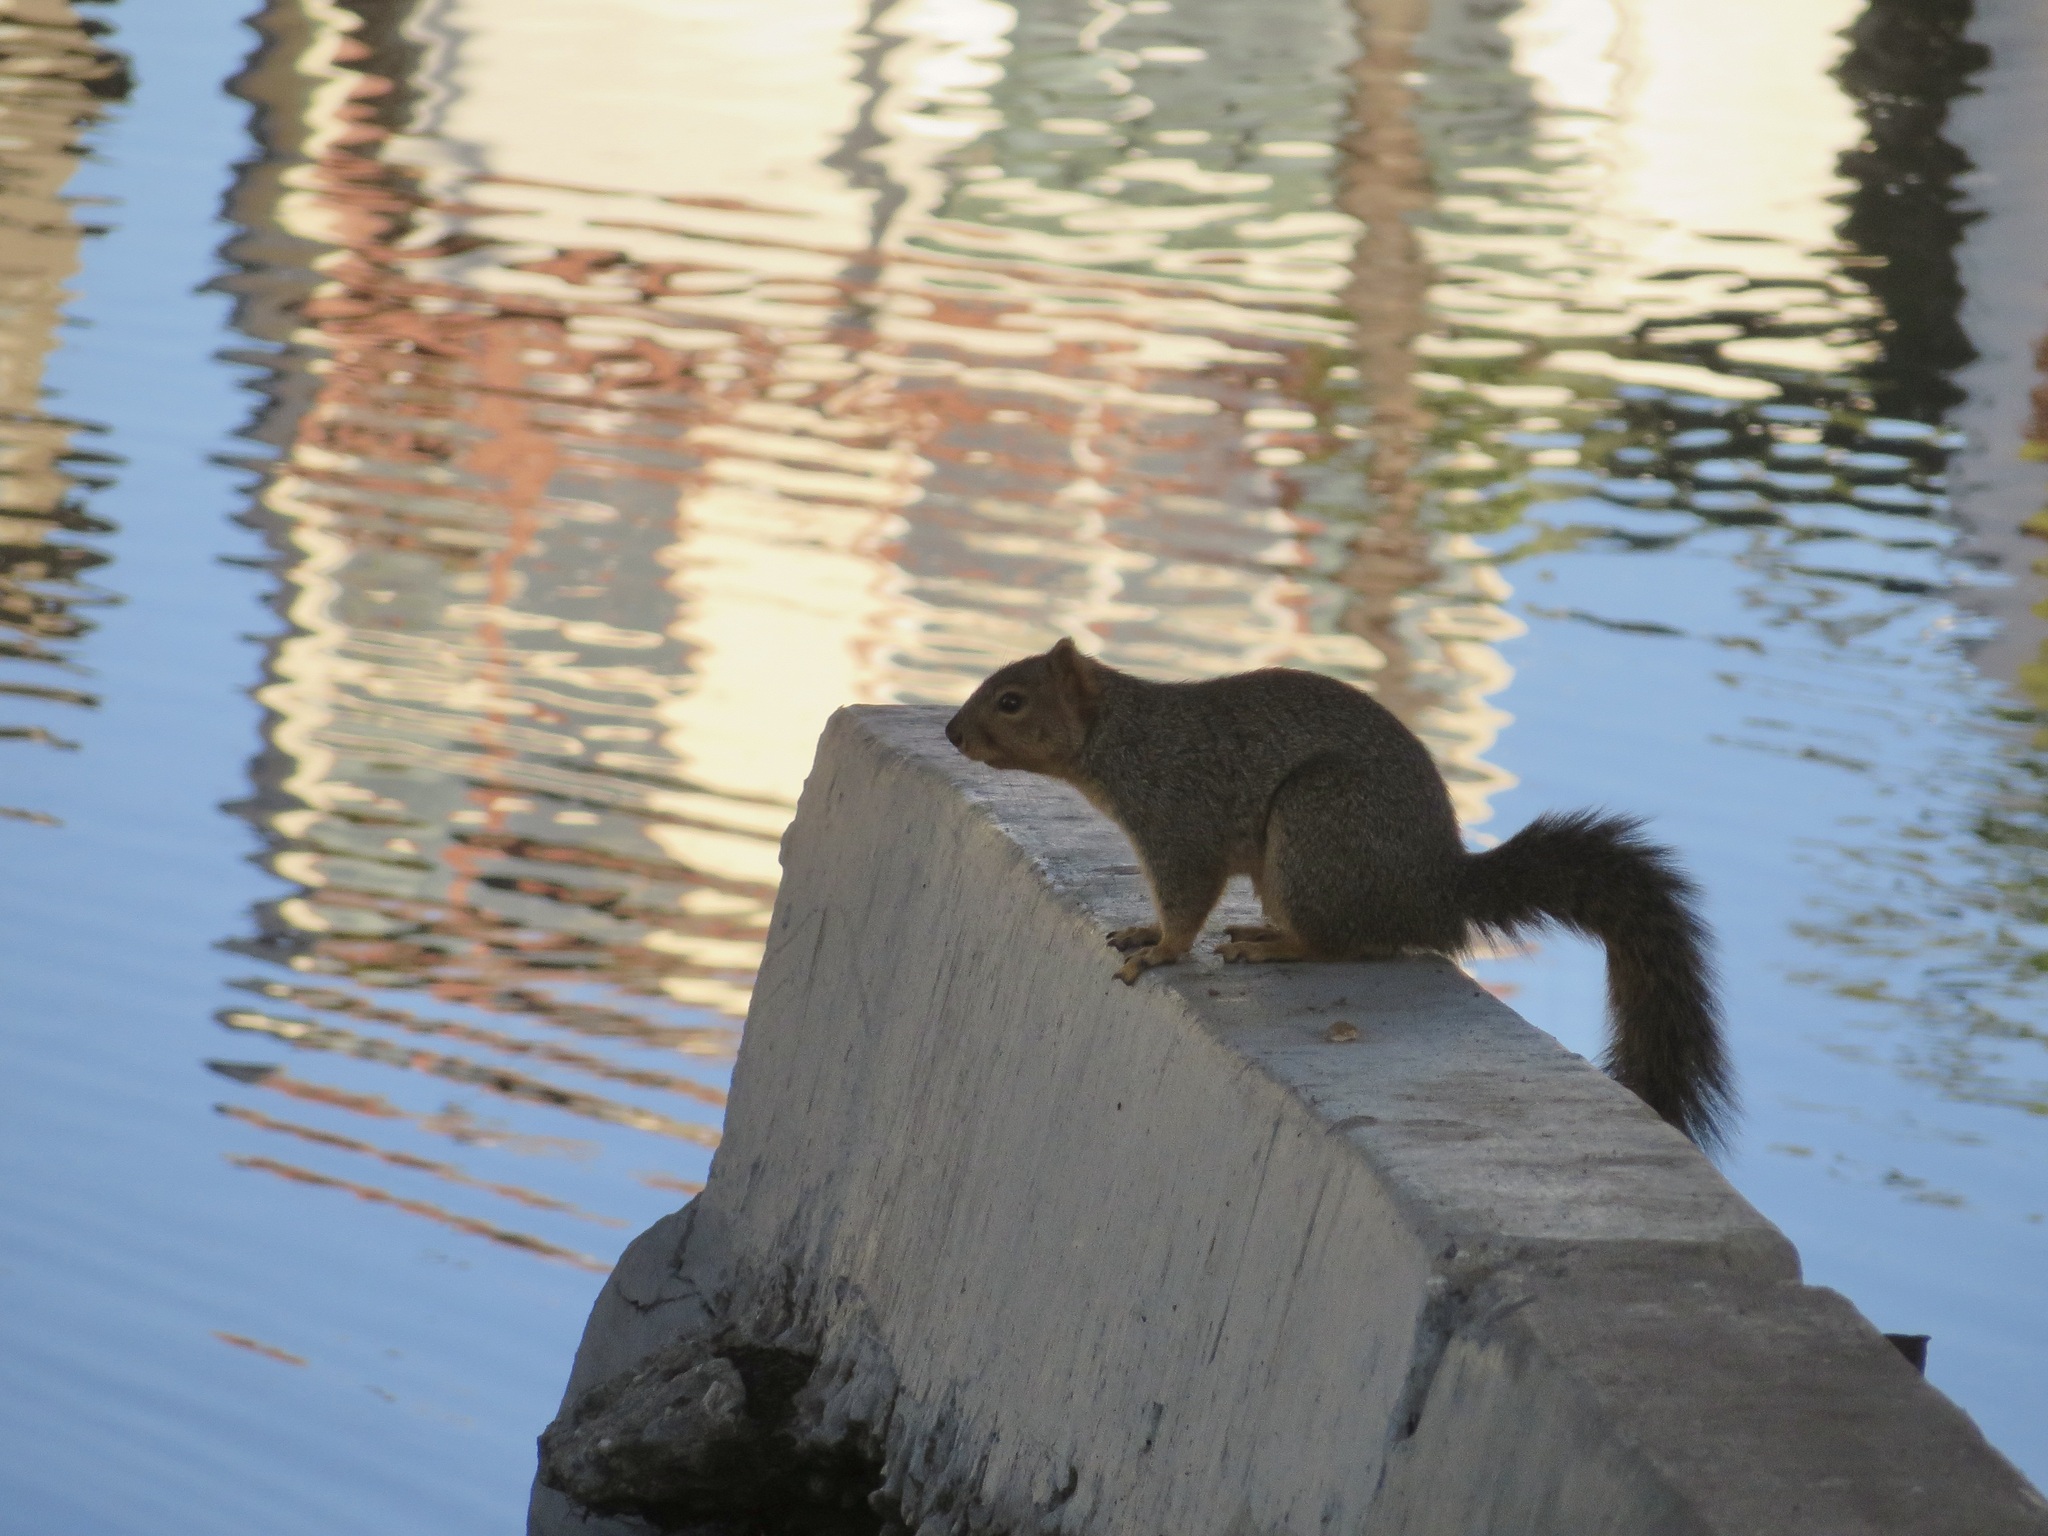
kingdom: Animalia
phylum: Chordata
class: Mammalia
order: Rodentia
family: Sciuridae
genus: Sciurus
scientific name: Sciurus niger
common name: Fox squirrel
